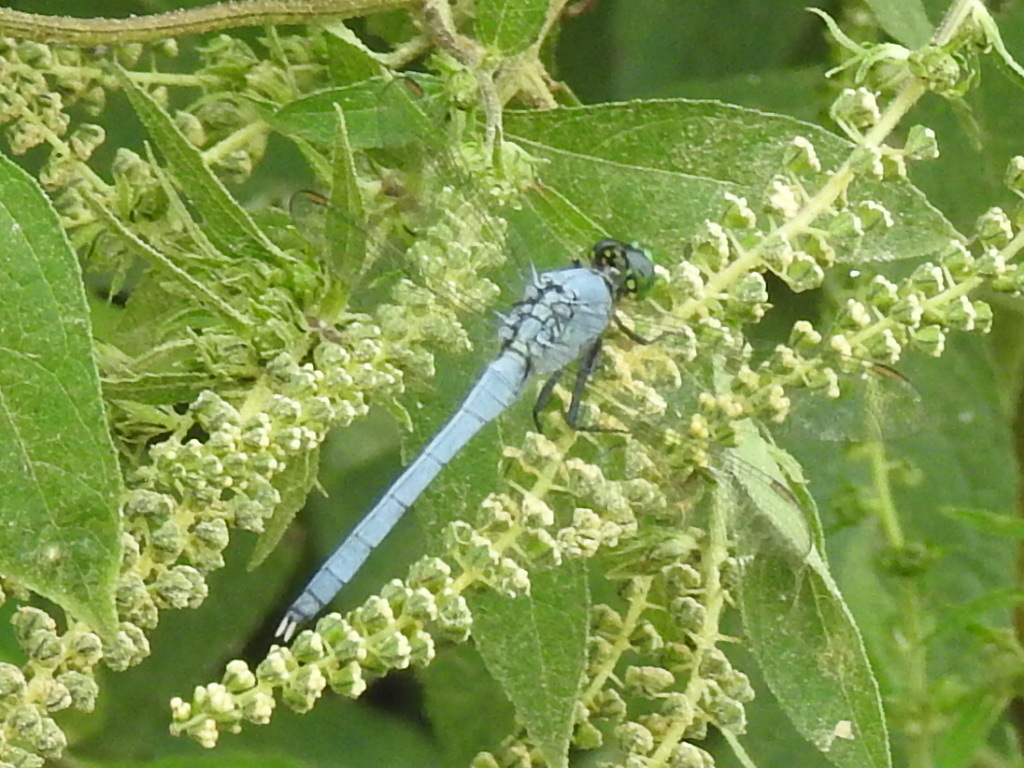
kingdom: Animalia
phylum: Arthropoda
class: Insecta
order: Odonata
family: Libellulidae
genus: Erythemis
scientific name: Erythemis simplicicollis
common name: Eastern pondhawk
